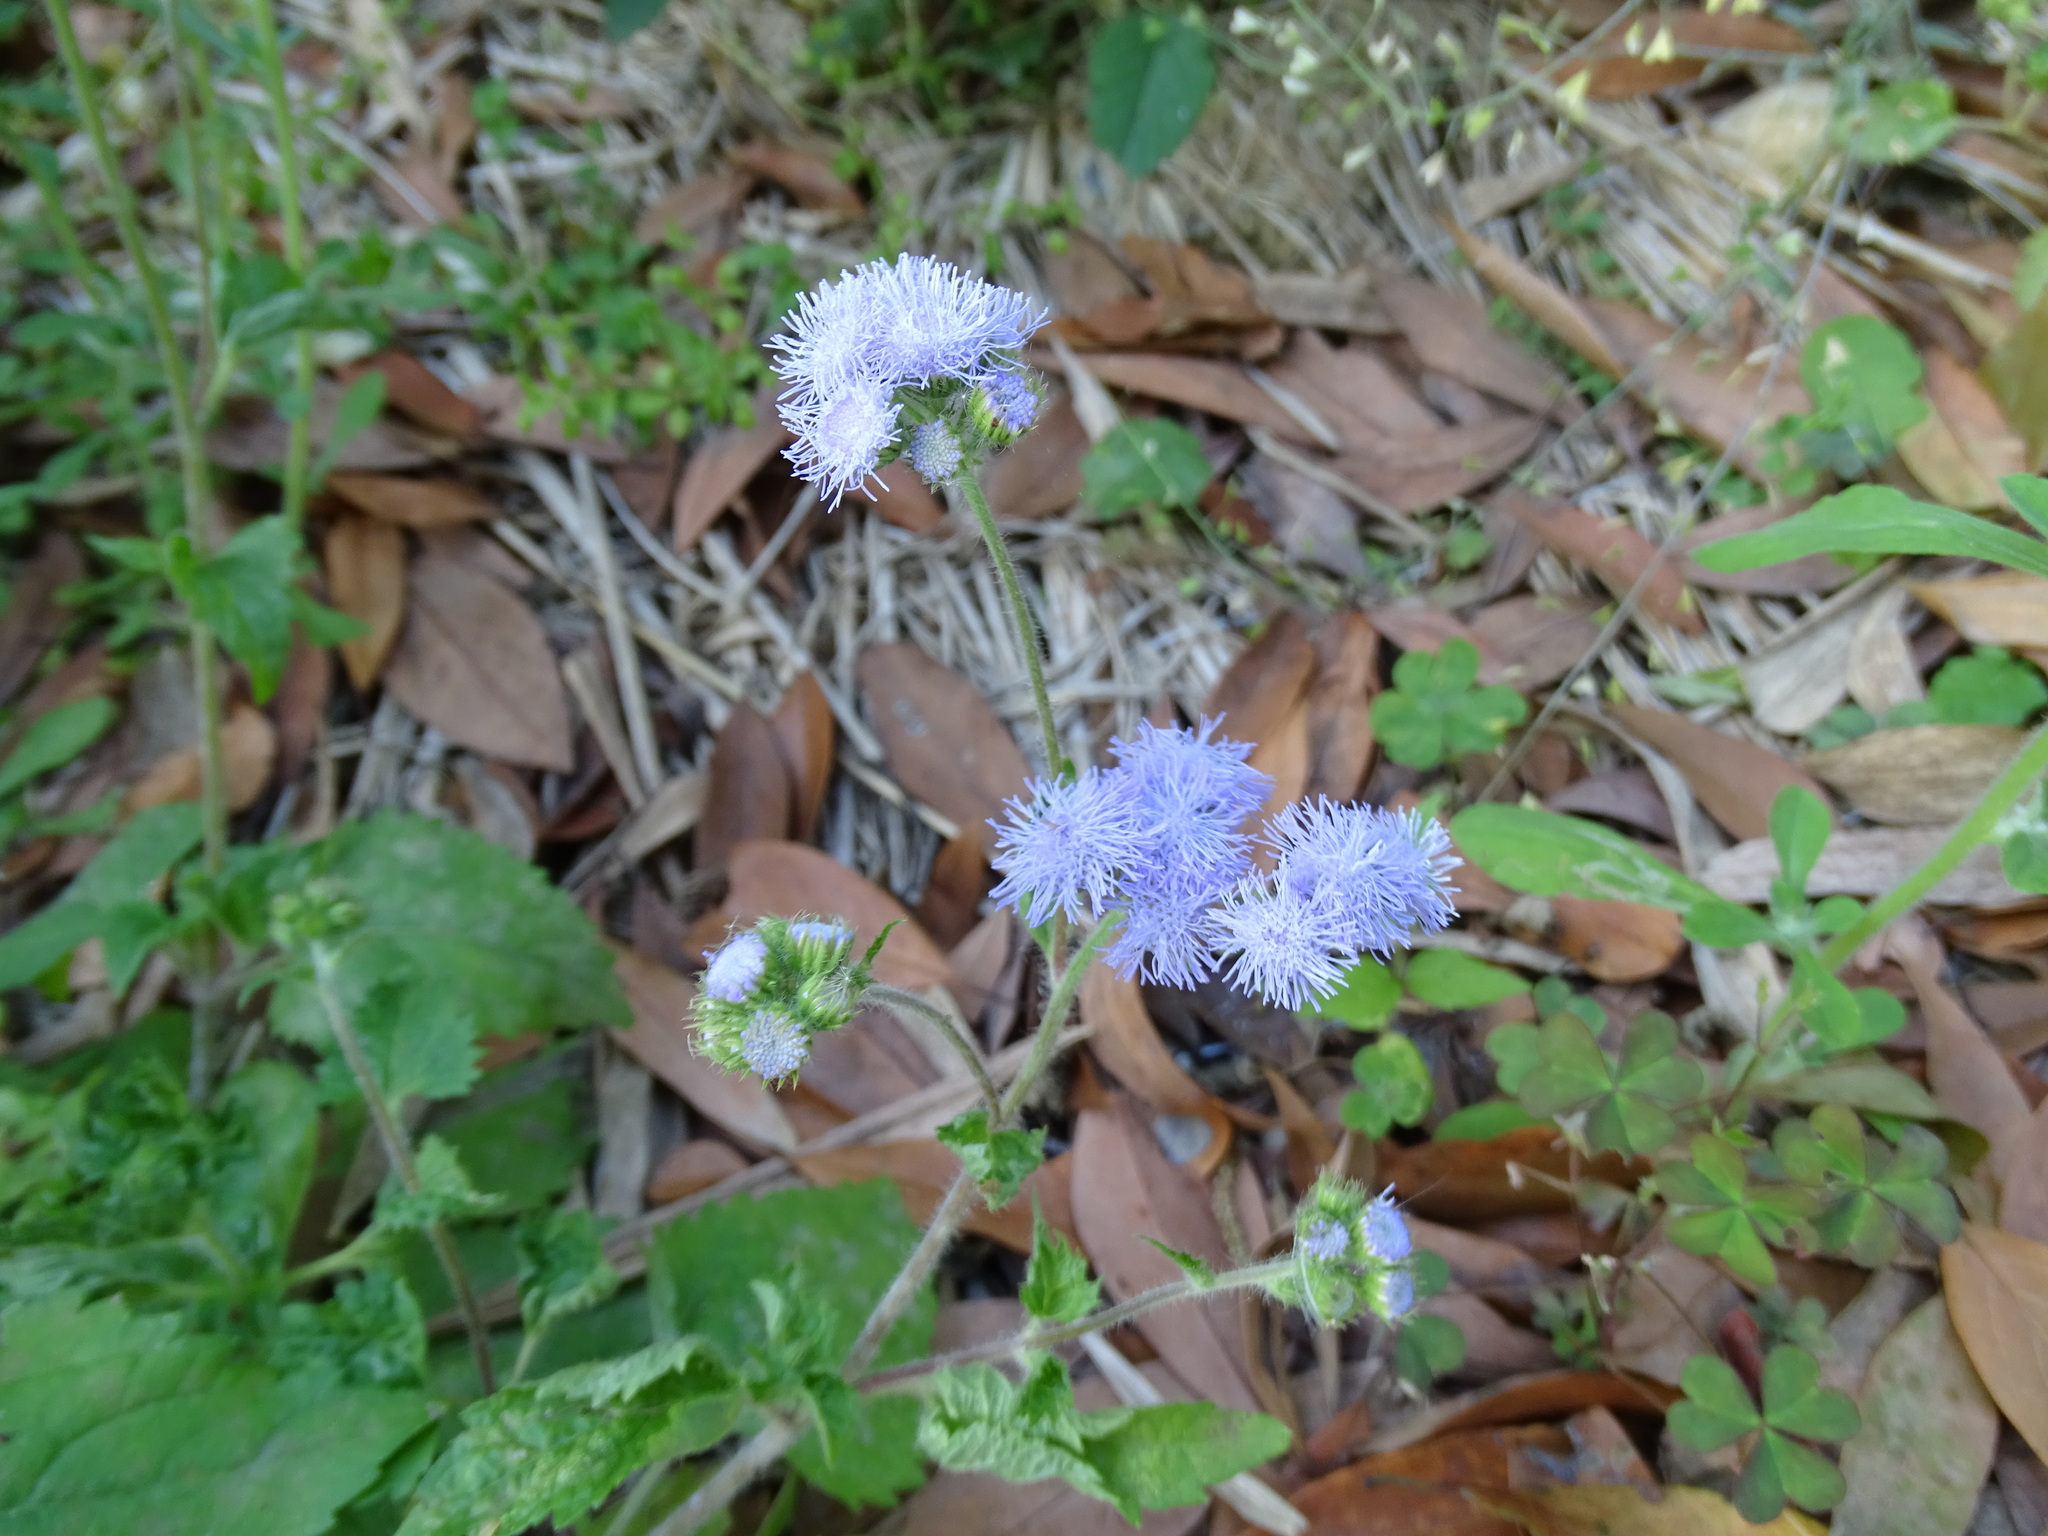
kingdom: Plantae
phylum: Tracheophyta
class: Magnoliopsida
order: Asterales
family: Asteraceae
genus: Ageratum
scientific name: Ageratum houstonianum
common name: Bluemink
